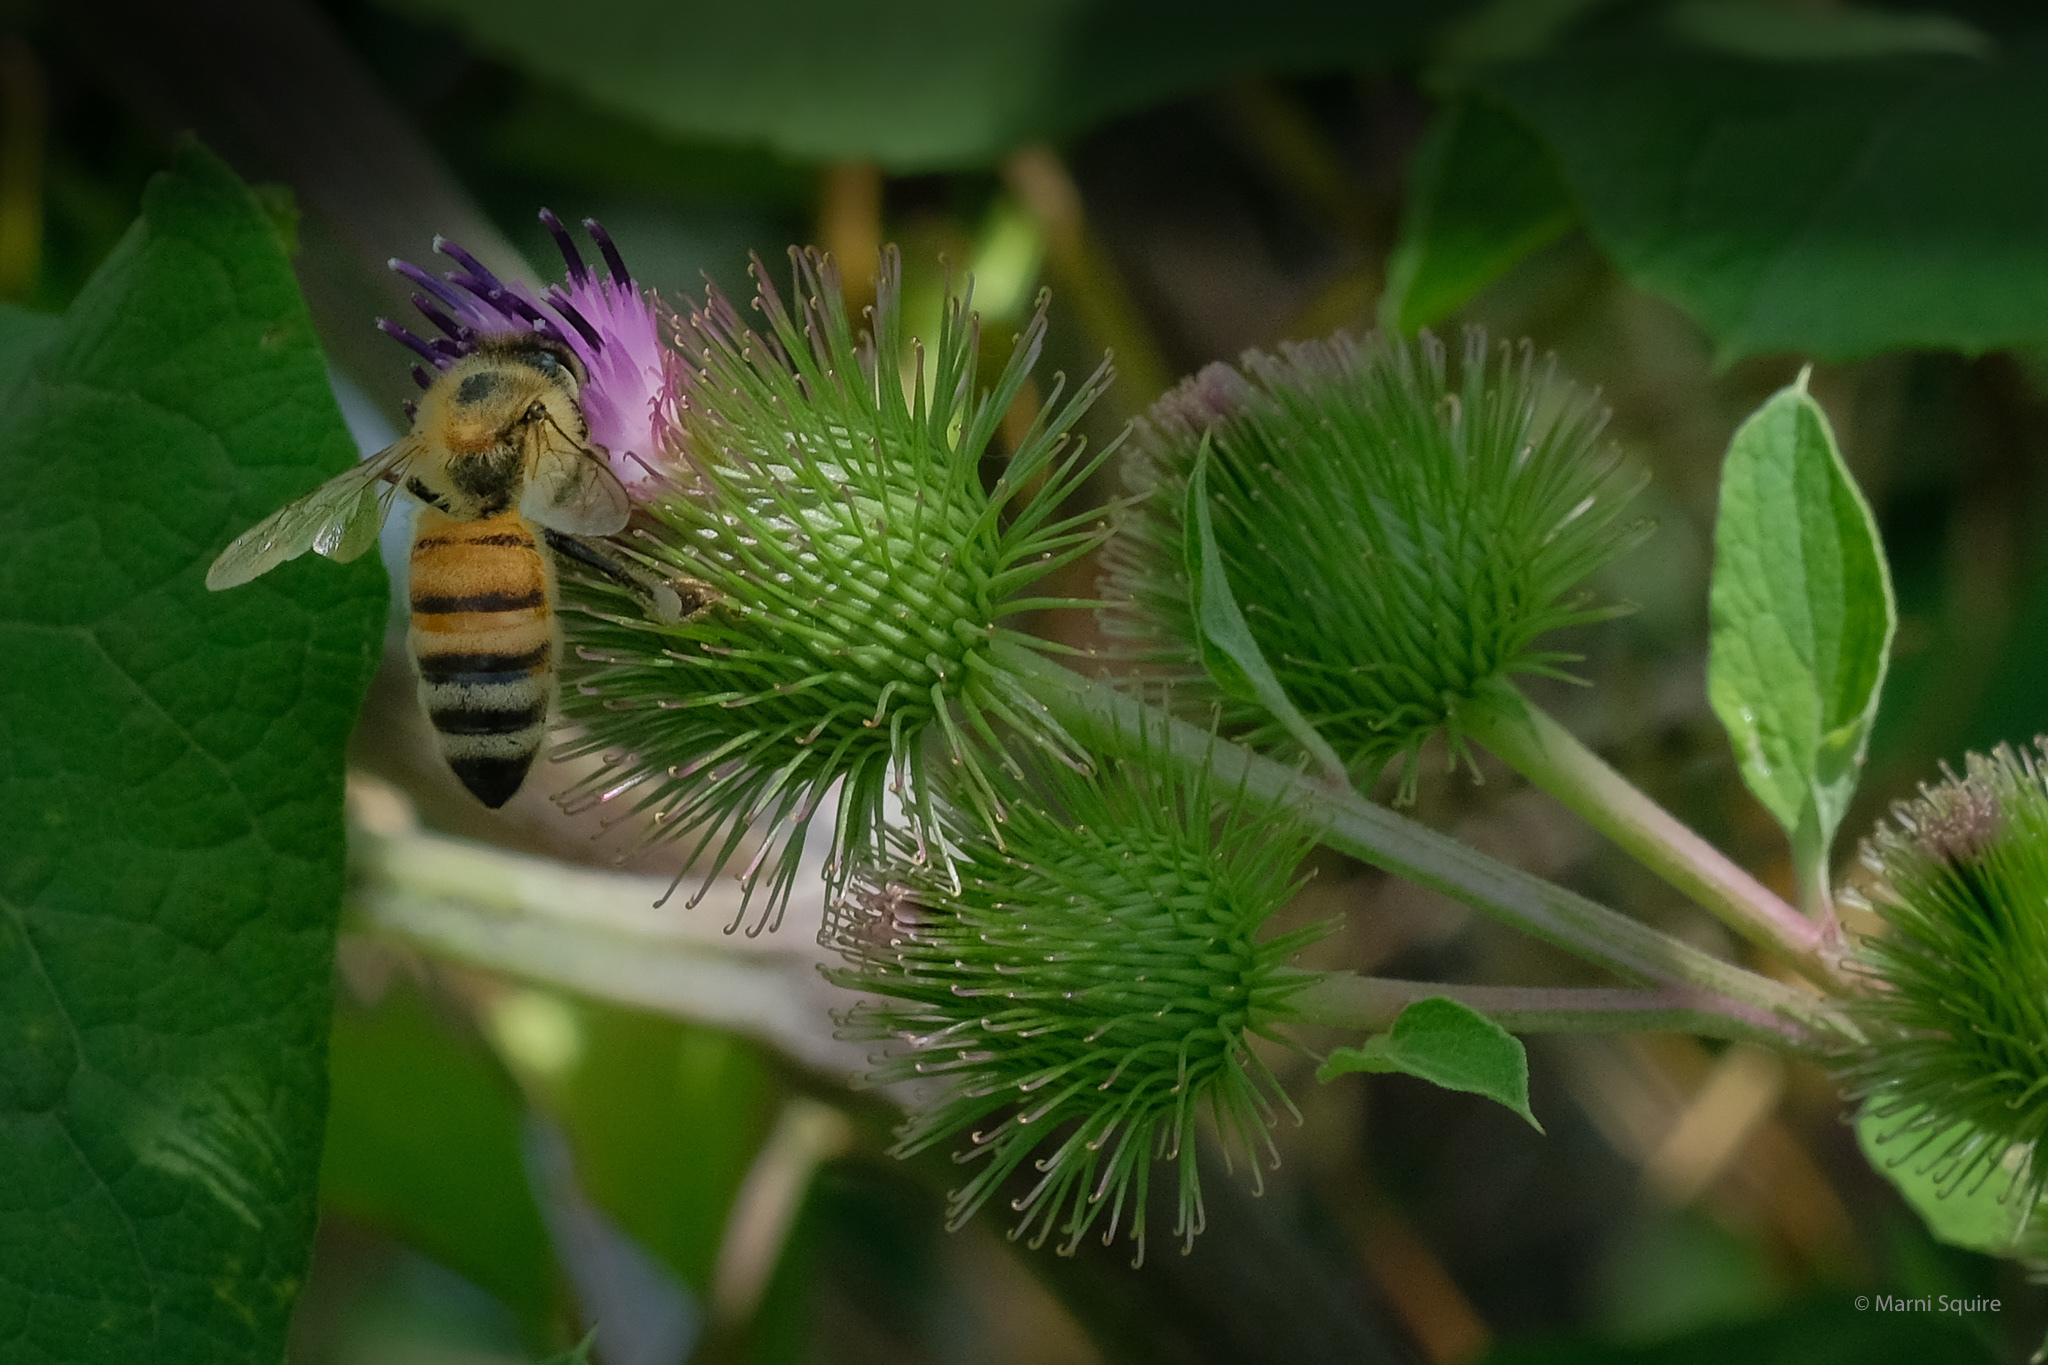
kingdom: Animalia
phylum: Arthropoda
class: Insecta
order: Hymenoptera
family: Apidae
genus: Apis
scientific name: Apis mellifera
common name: Honey bee
